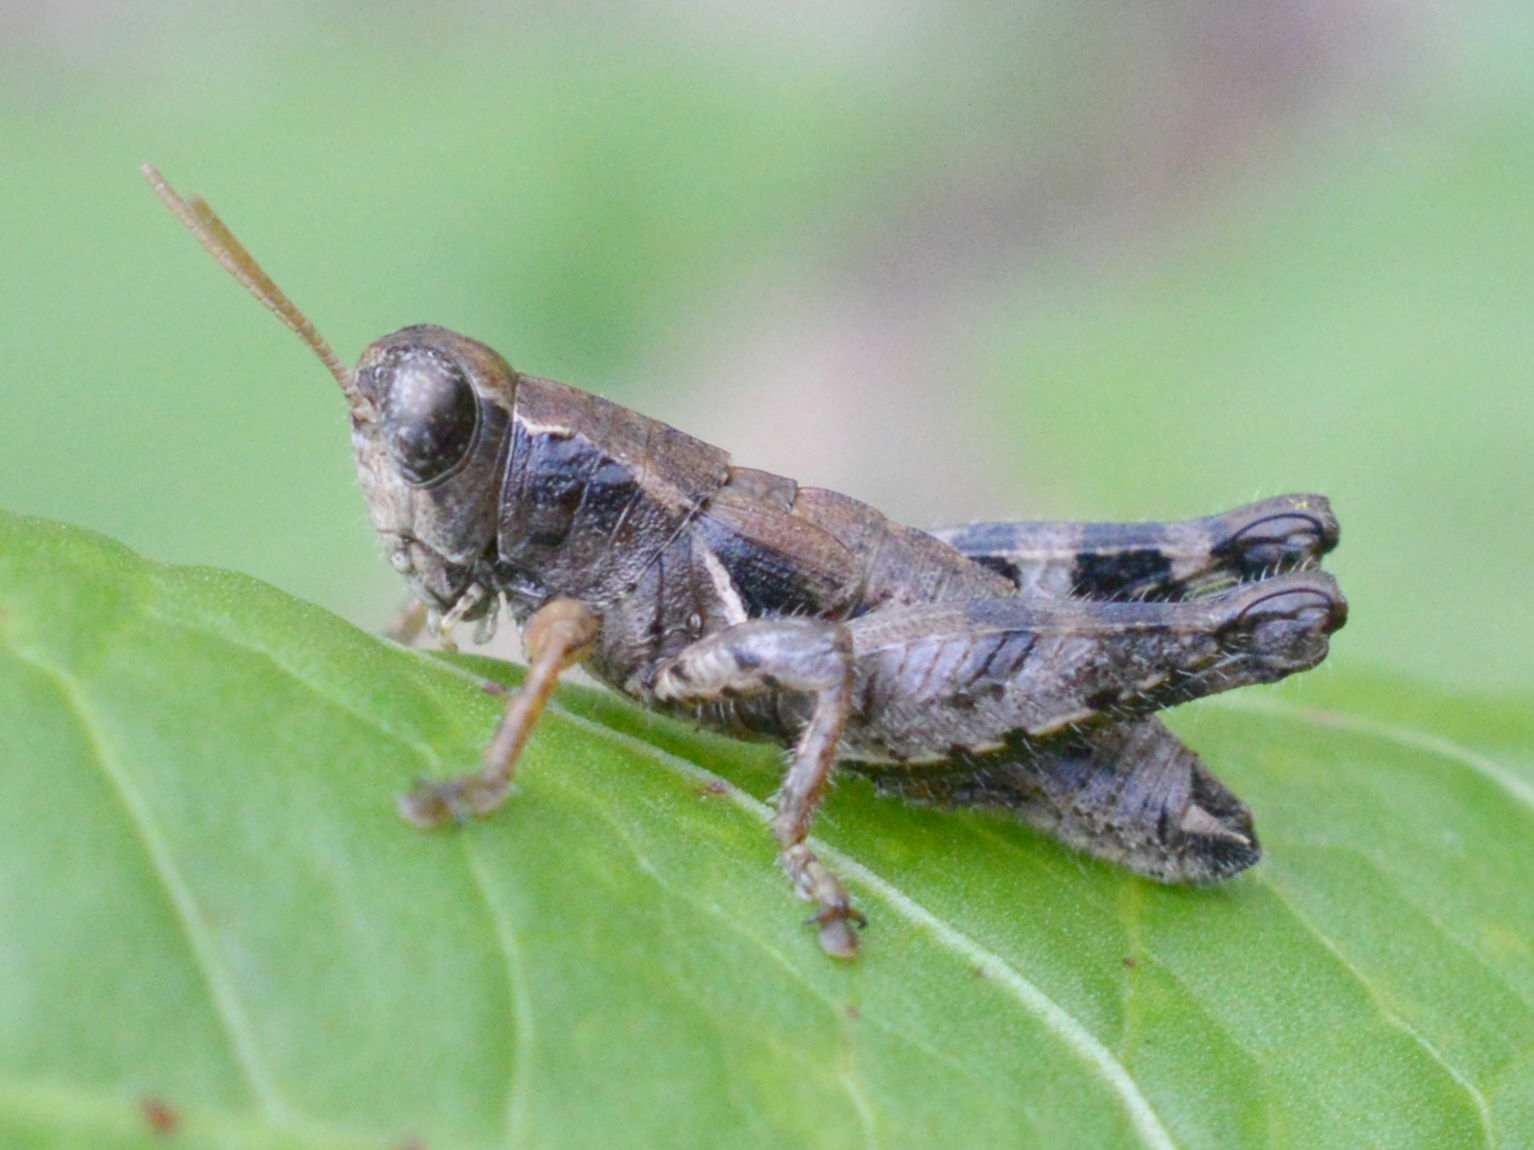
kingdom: Animalia
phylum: Arthropoda
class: Insecta
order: Orthoptera
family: Acrididae
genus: Pezotettix
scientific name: Pezotettix giornae
